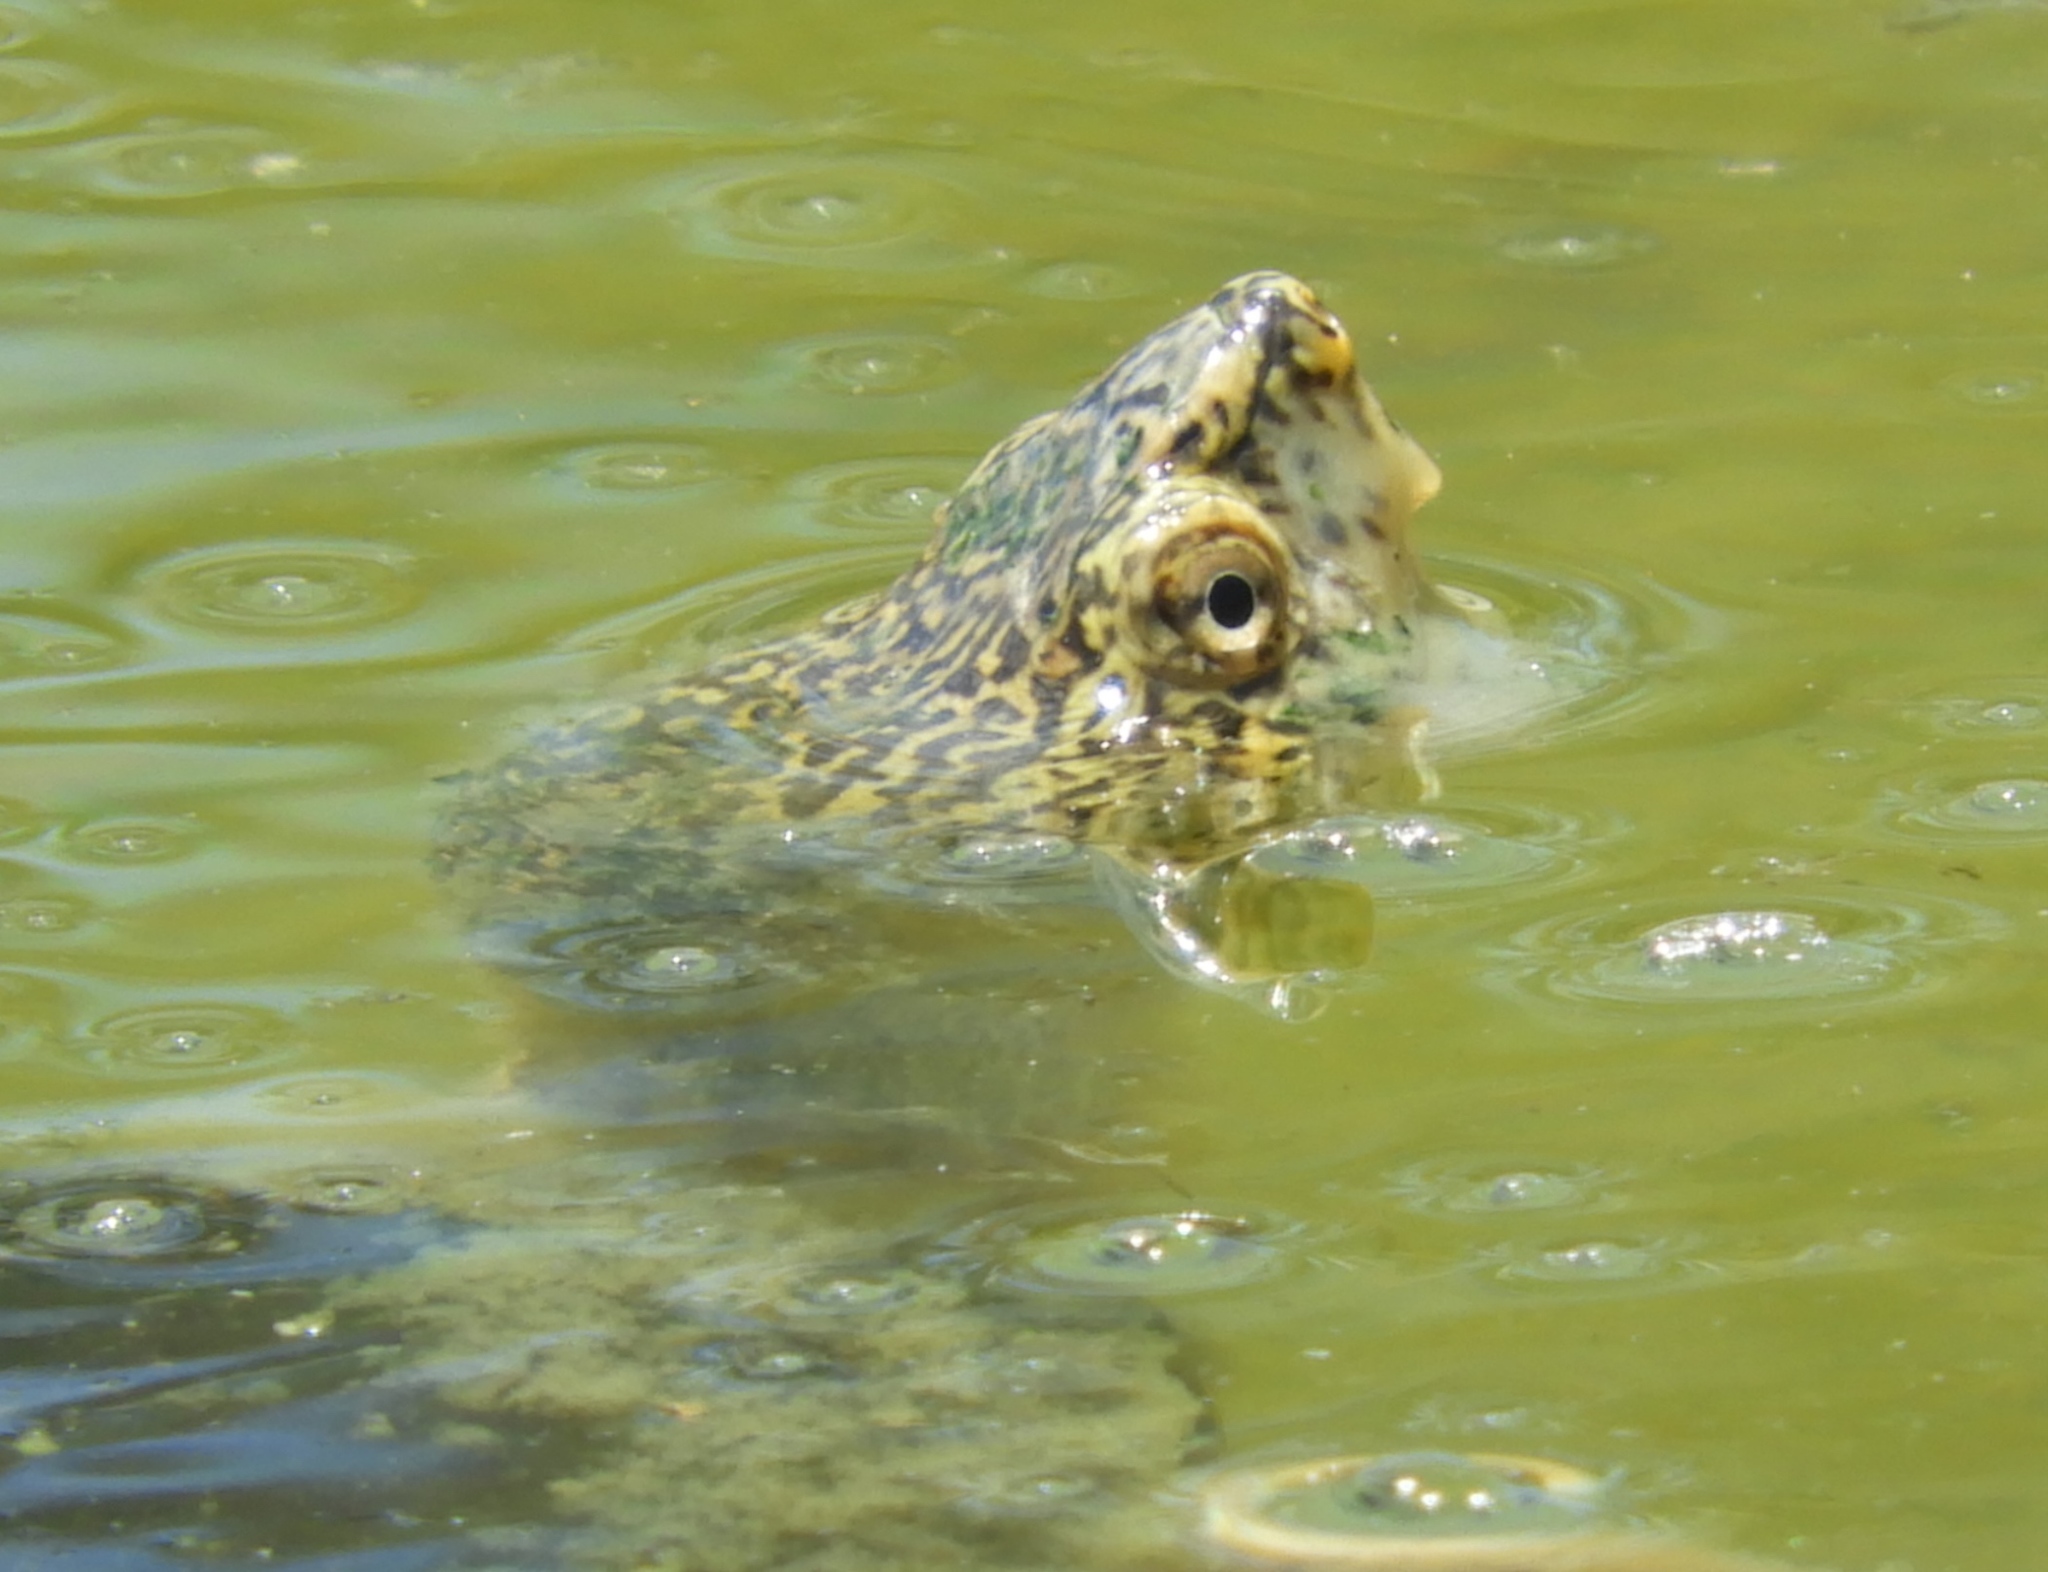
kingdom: Animalia
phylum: Chordata
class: Testudines
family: Kinosternidae
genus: Kinosternon
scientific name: Kinosternon integrum
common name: Mexican mud turtle
